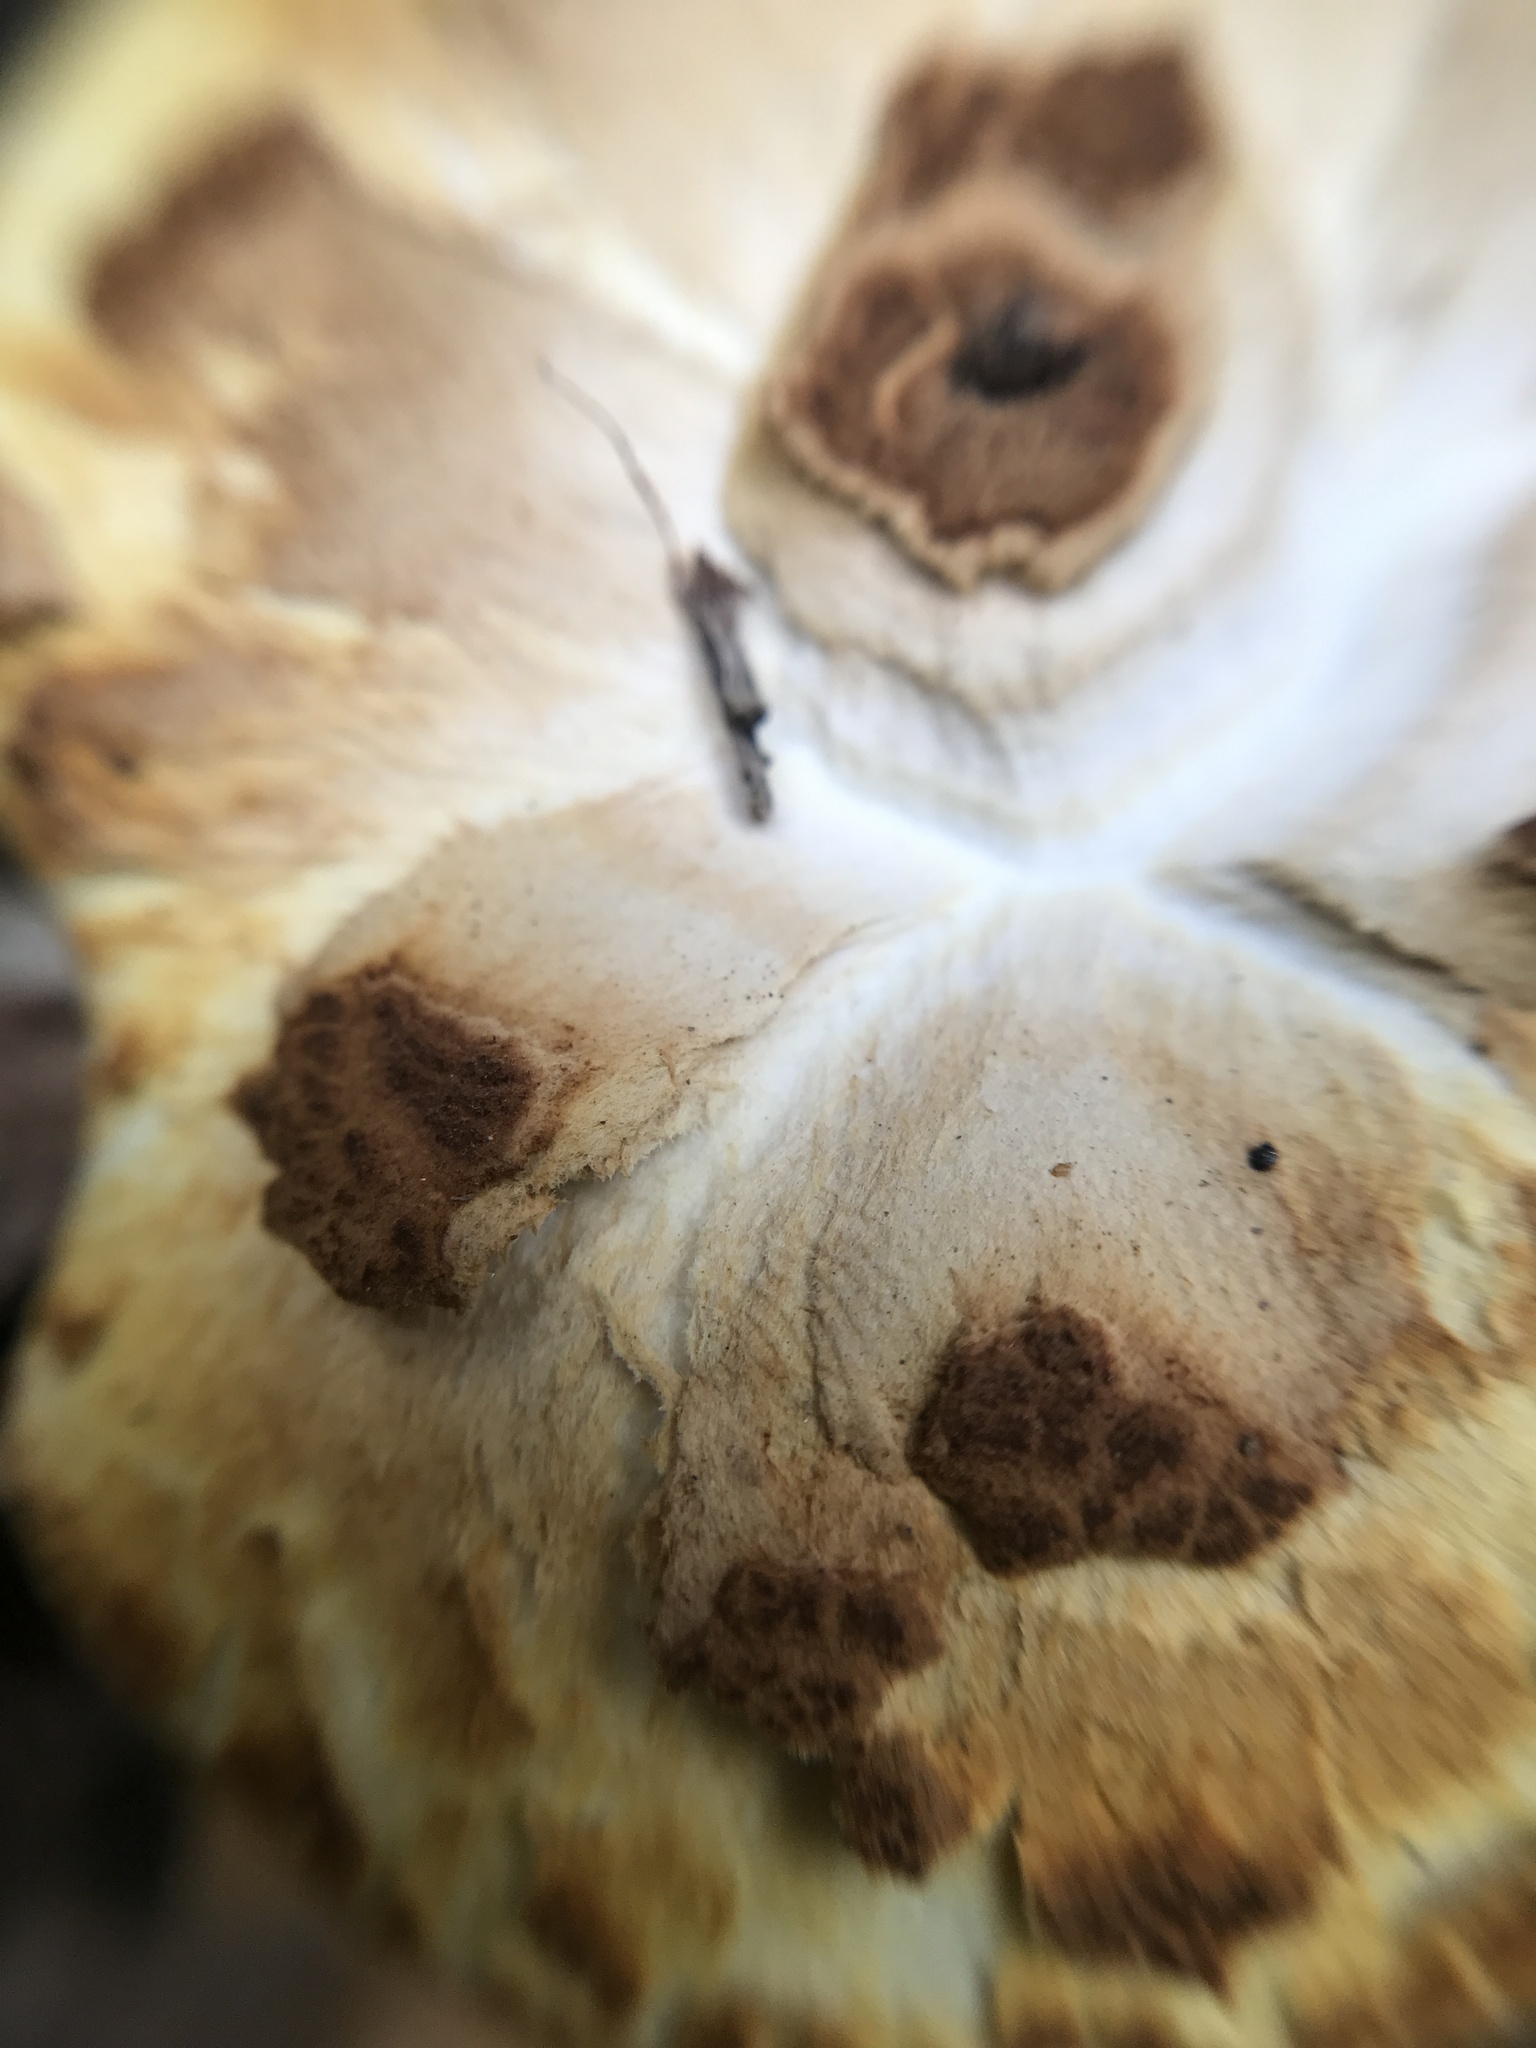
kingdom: Fungi
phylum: Basidiomycota
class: Agaricomycetes
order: Polyporales
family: Fomitopsidaceae
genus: Fomitopsis
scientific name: Fomitopsis
